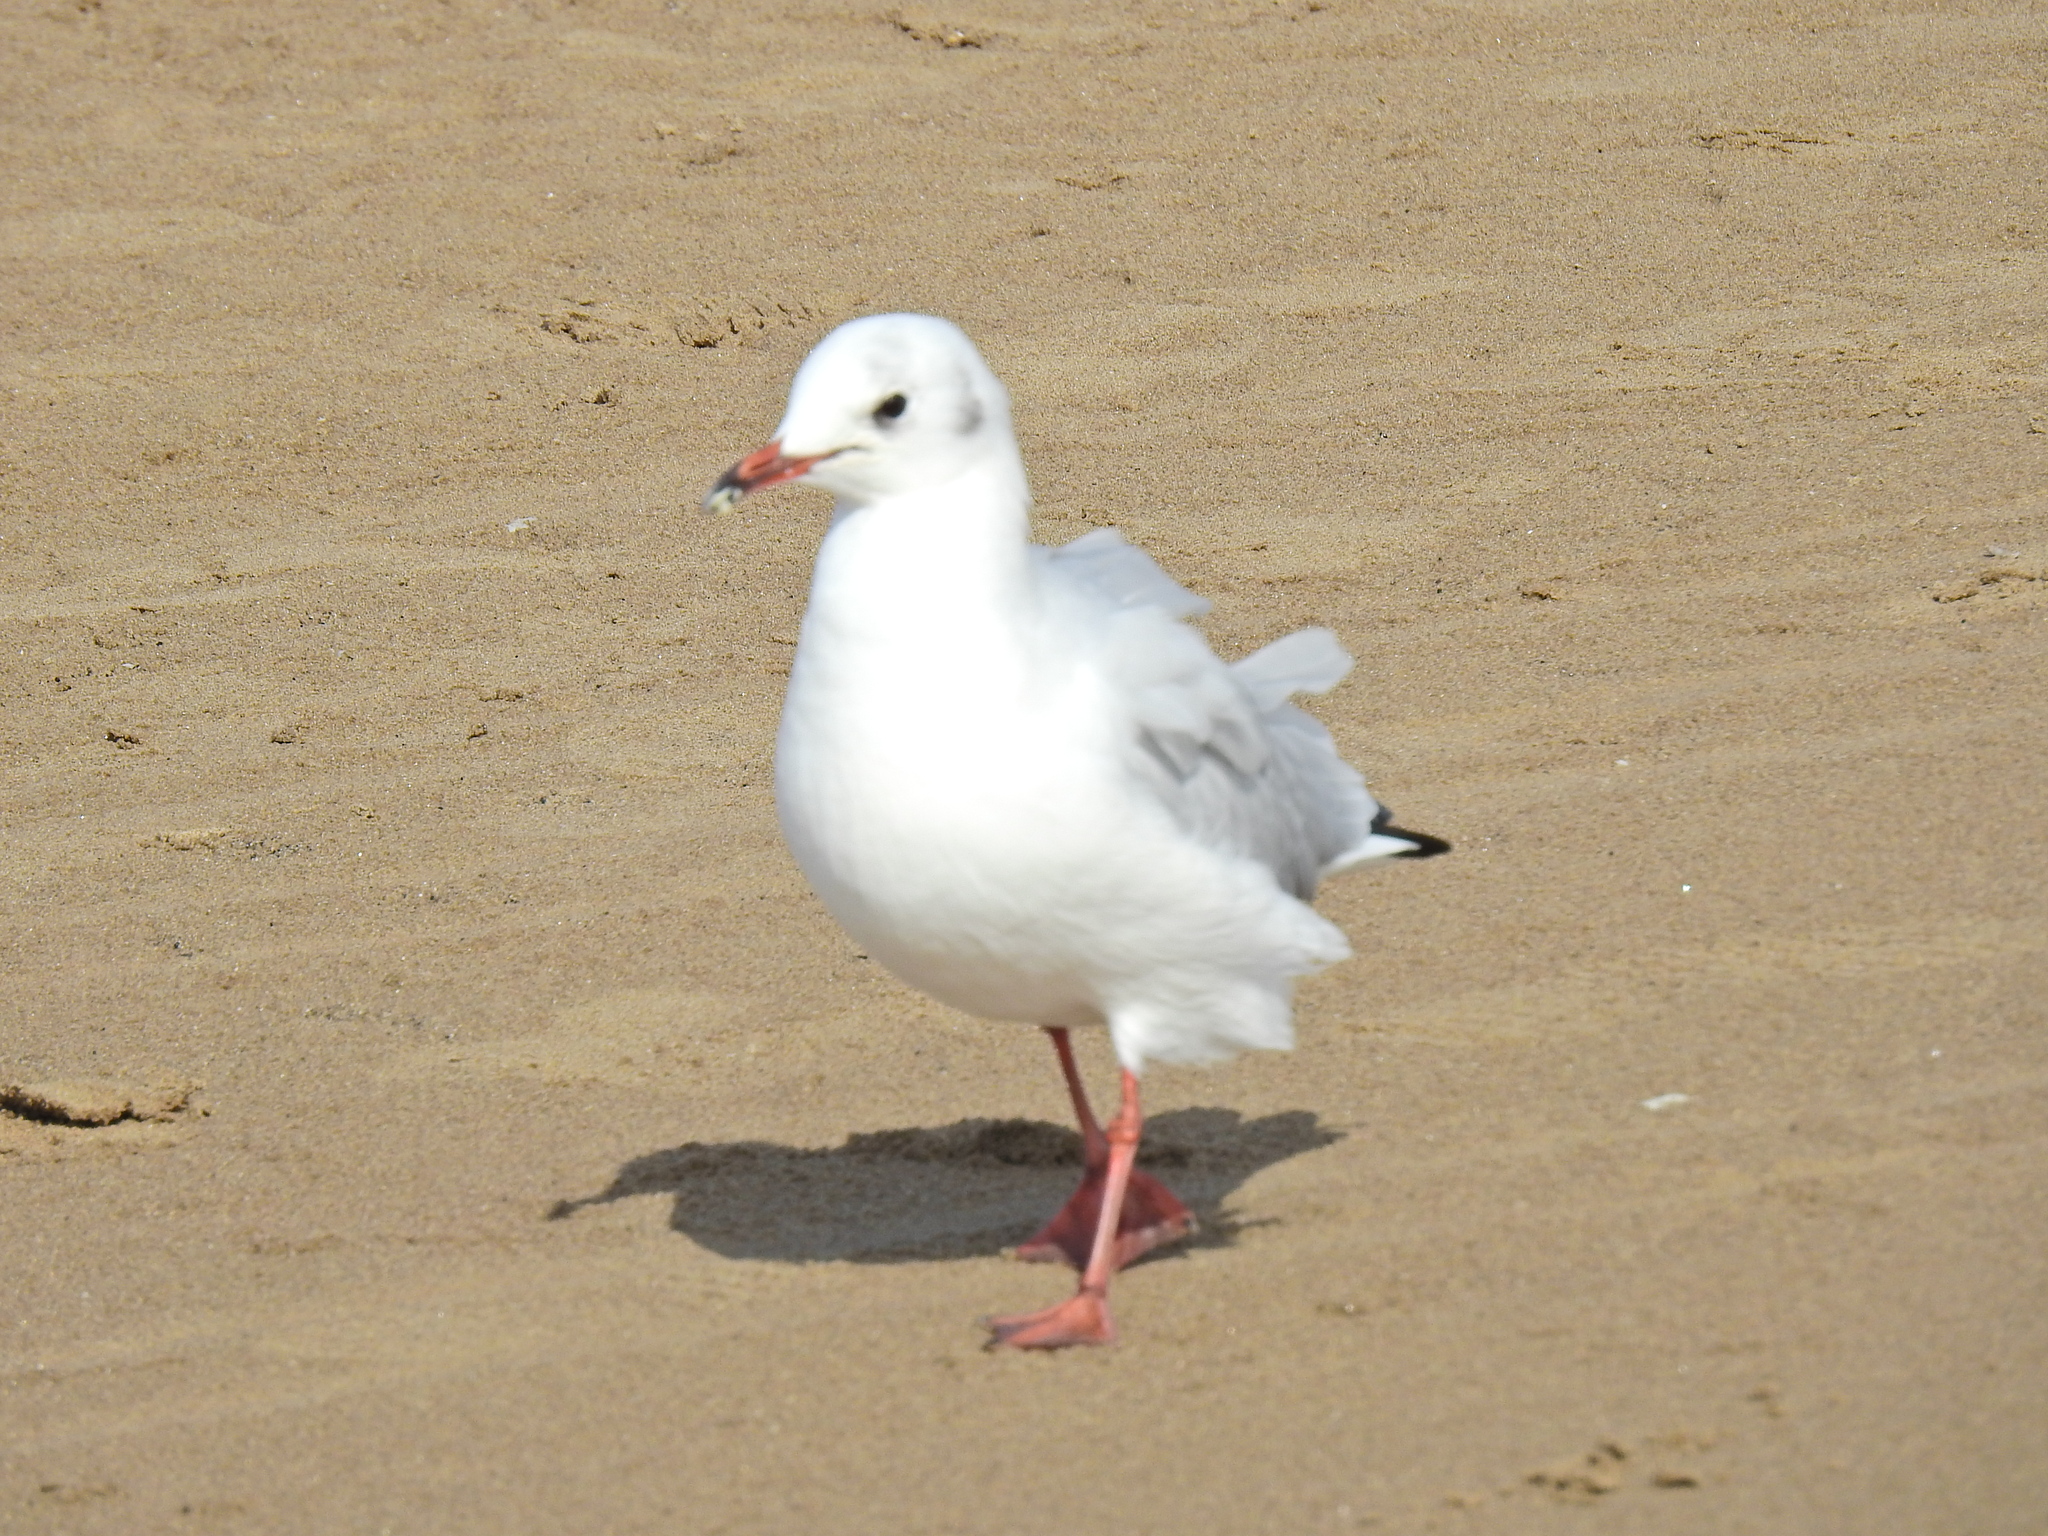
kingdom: Animalia
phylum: Chordata
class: Aves
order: Charadriiformes
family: Laridae
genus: Chroicocephalus
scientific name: Chroicocephalus ridibundus
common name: Black-headed gull
